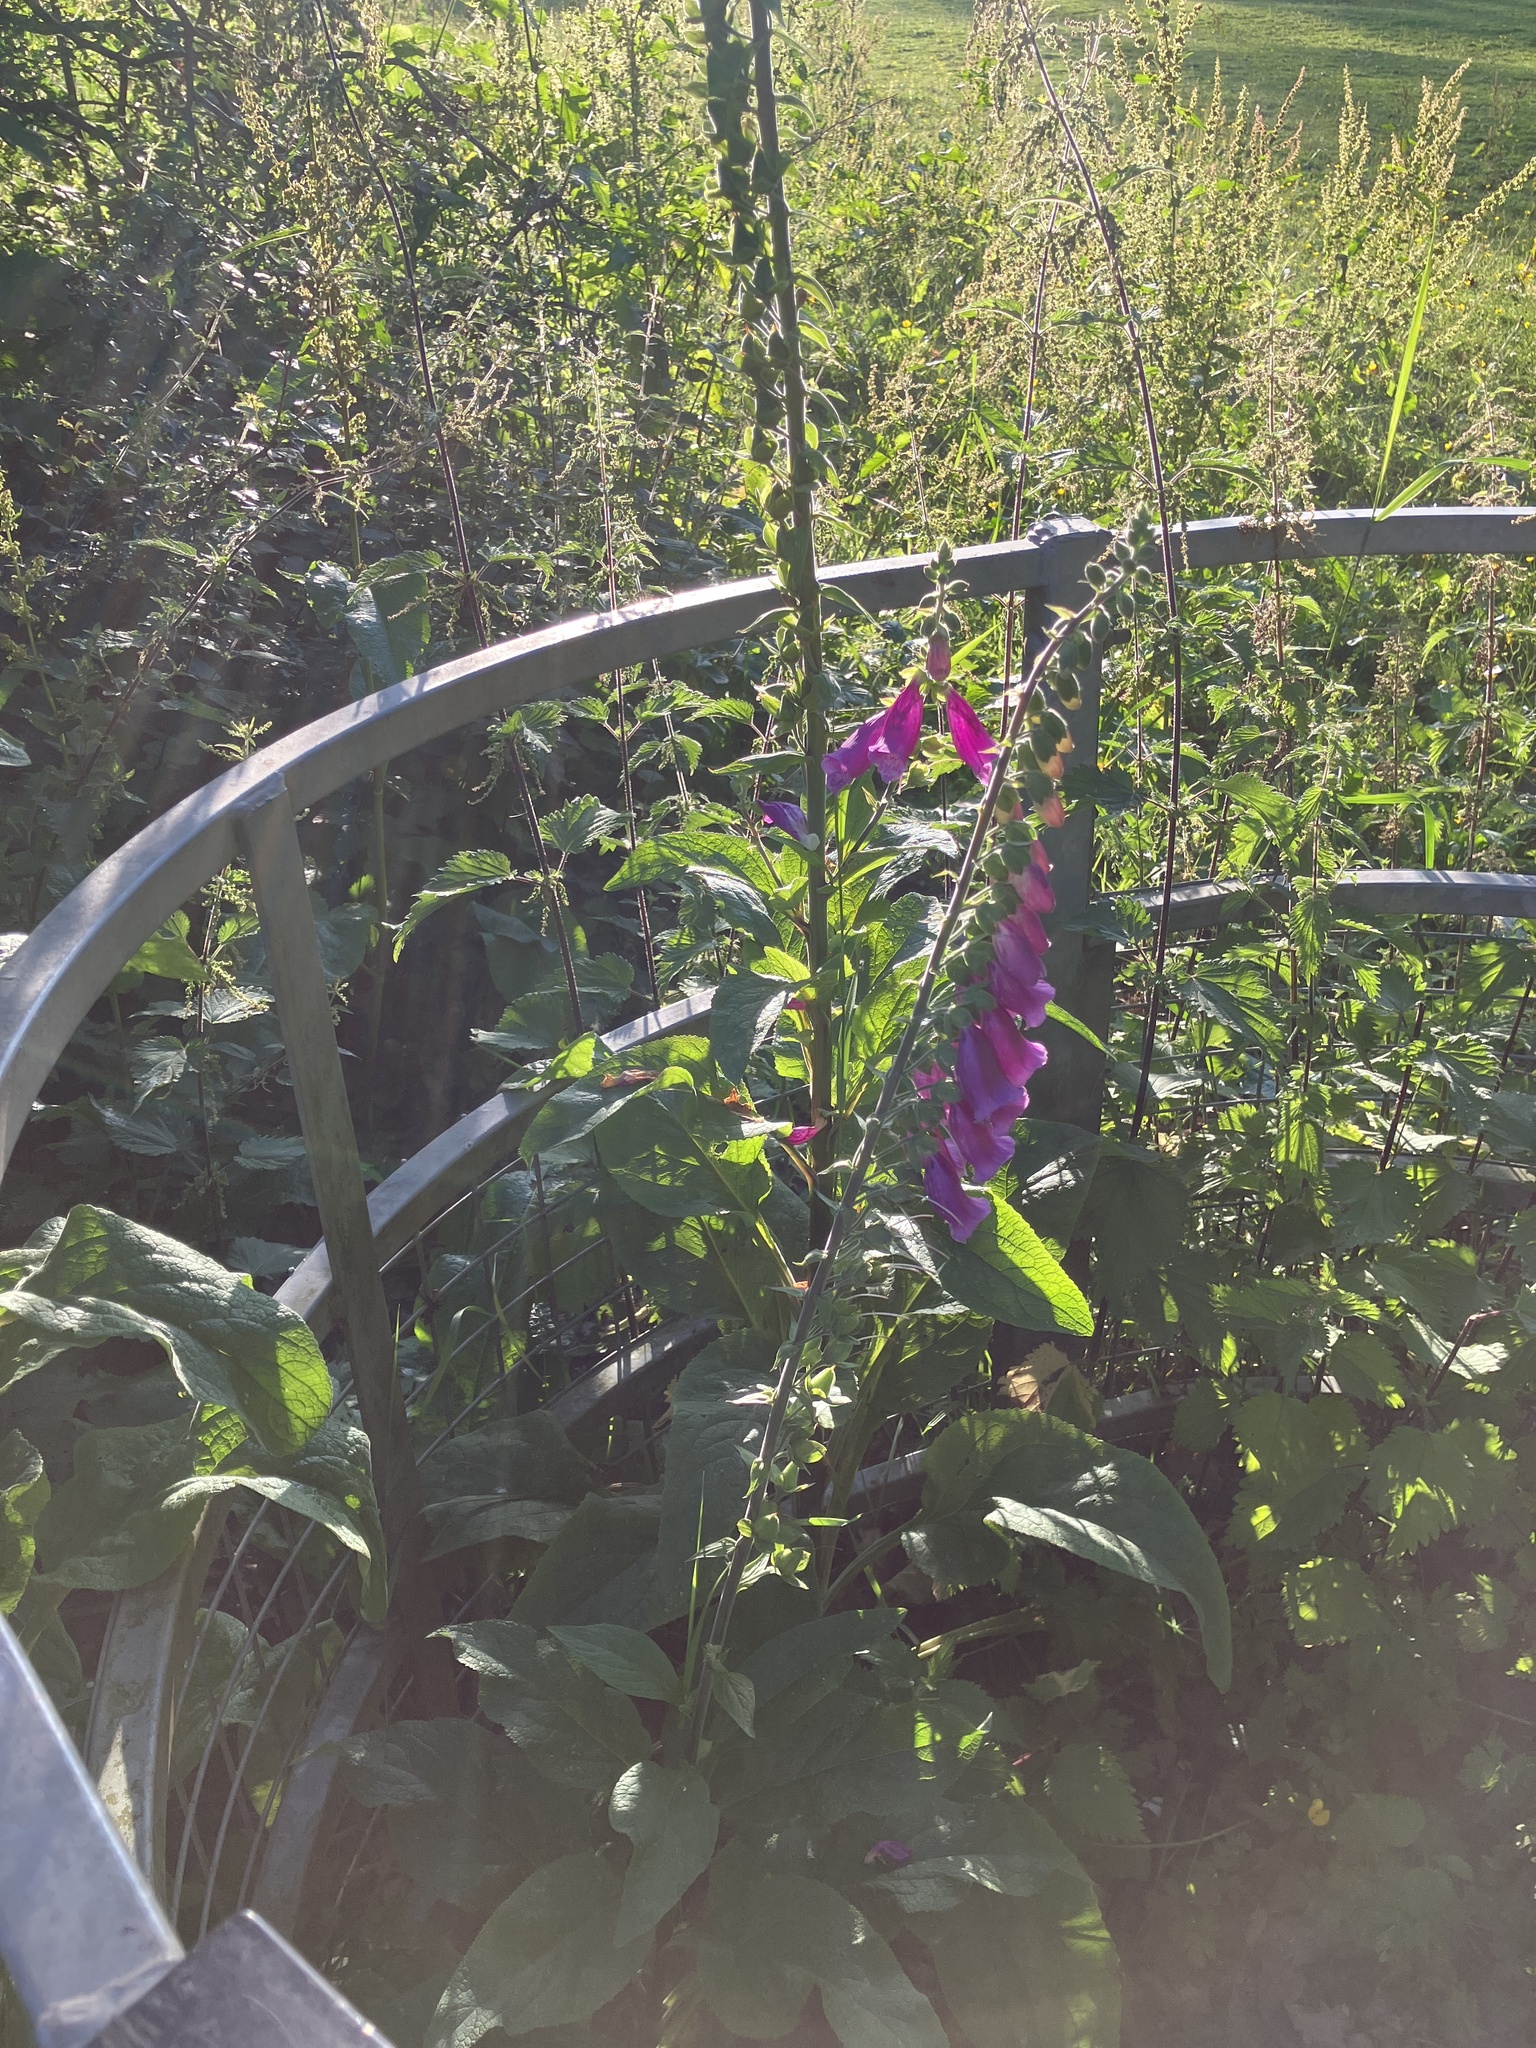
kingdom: Plantae
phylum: Tracheophyta
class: Magnoliopsida
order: Lamiales
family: Plantaginaceae
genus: Digitalis
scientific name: Digitalis purpurea
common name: Foxglove
